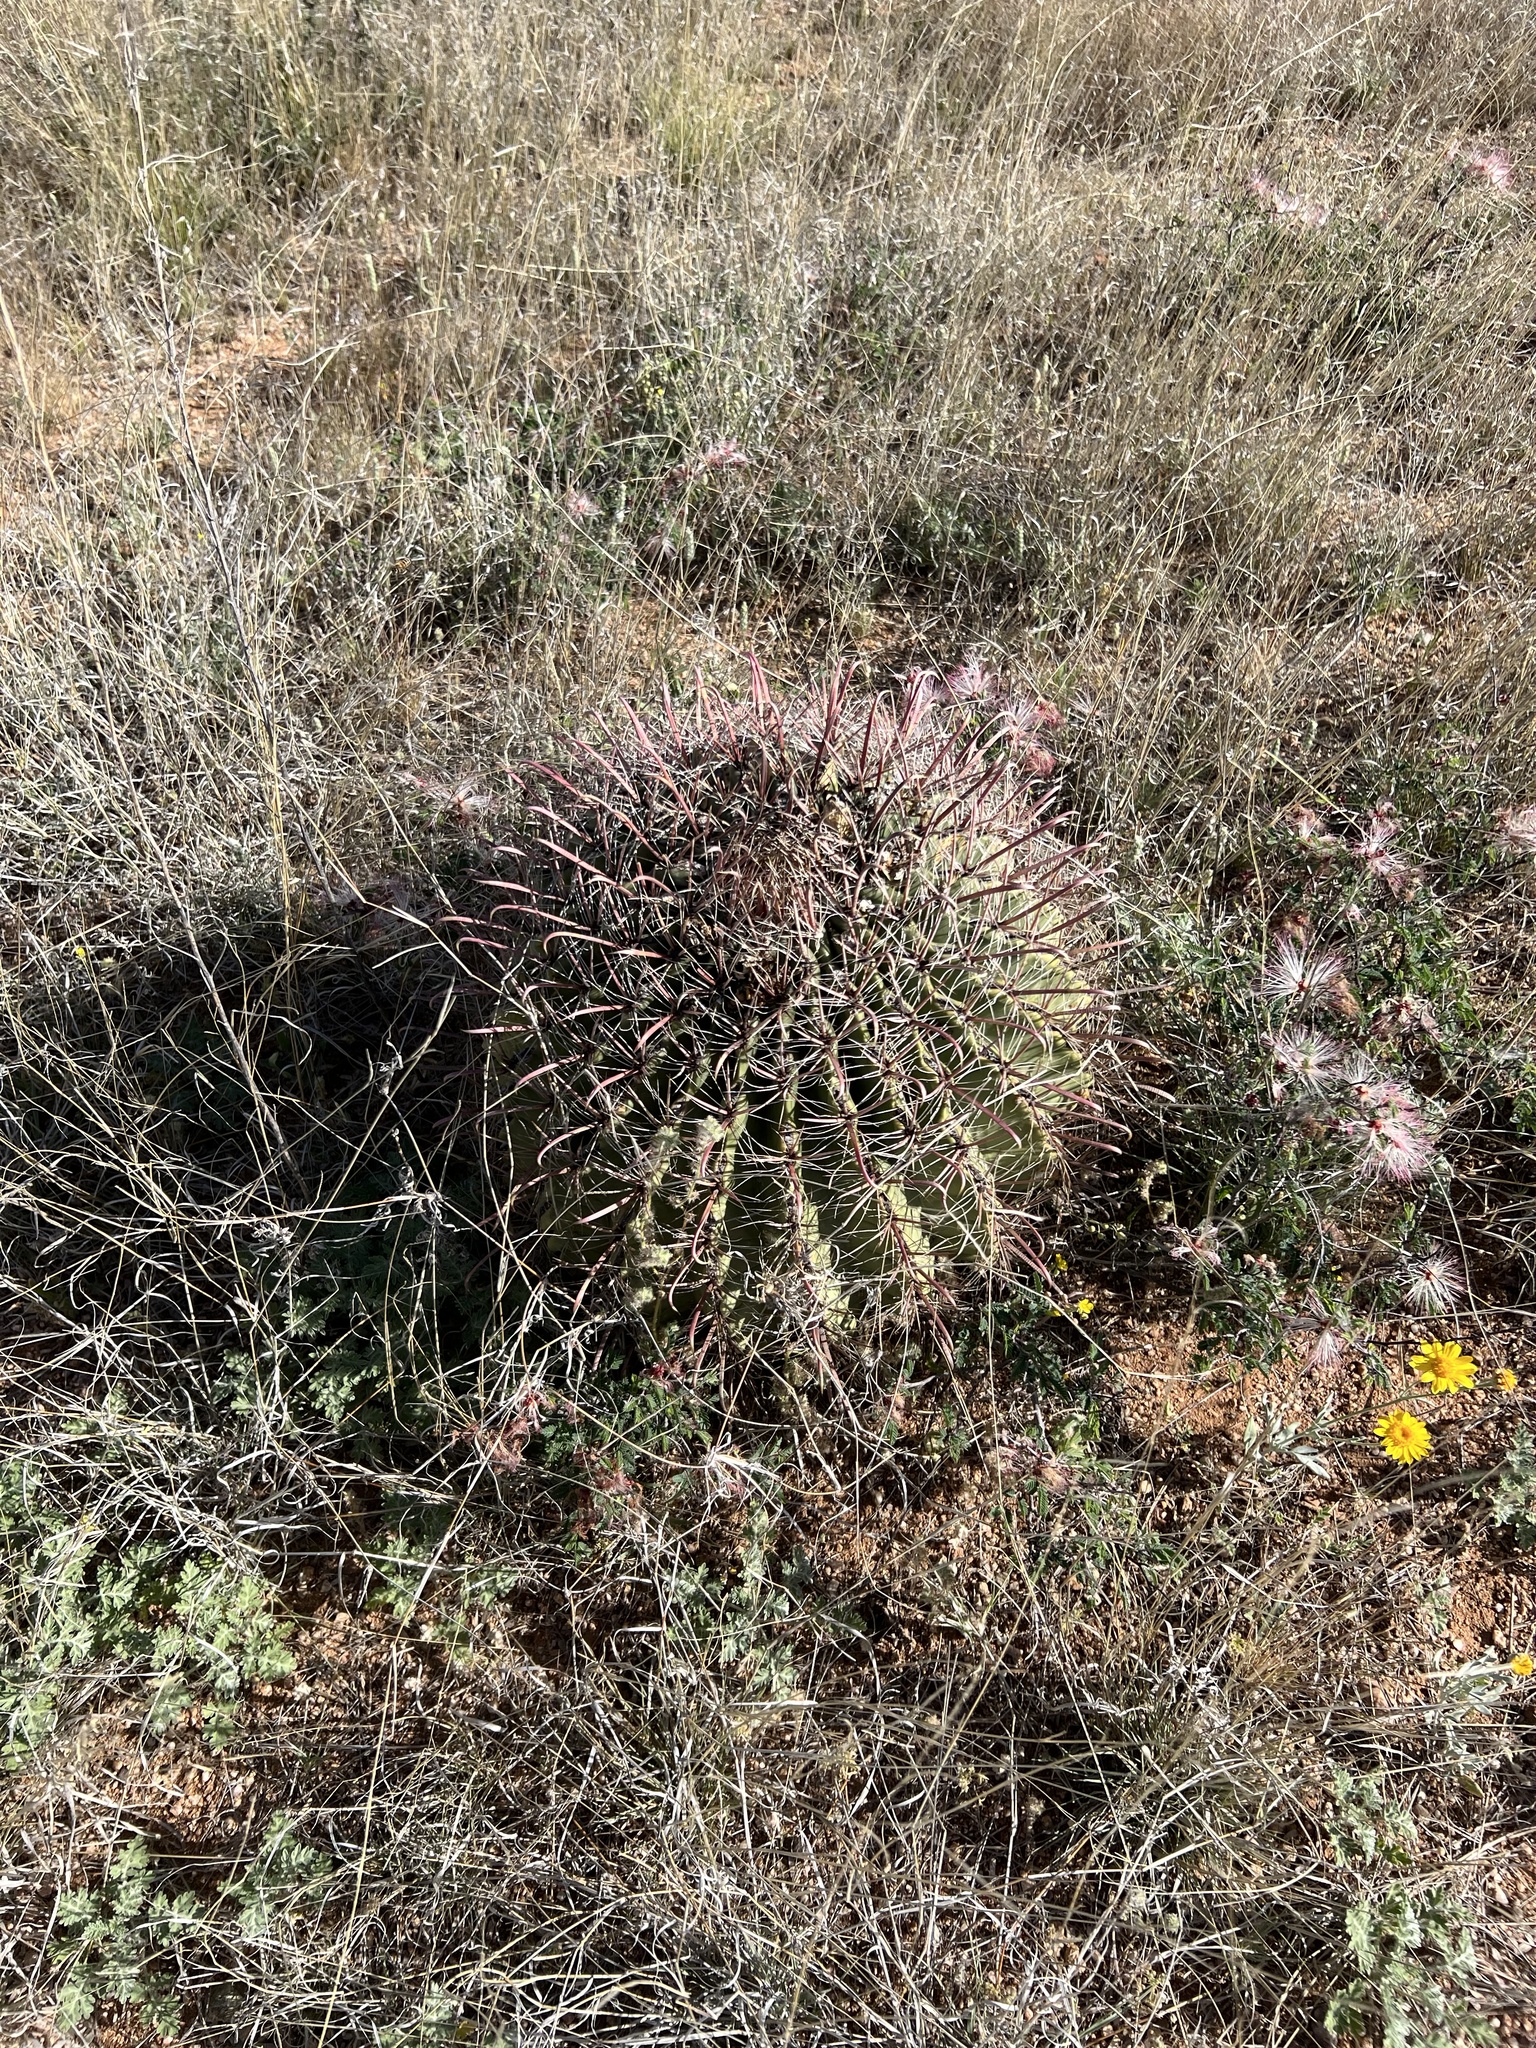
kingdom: Plantae
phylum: Tracheophyta
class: Magnoliopsida
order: Caryophyllales
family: Cactaceae
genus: Ferocactus
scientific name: Ferocactus wislizeni
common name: Candy barrel cactus
